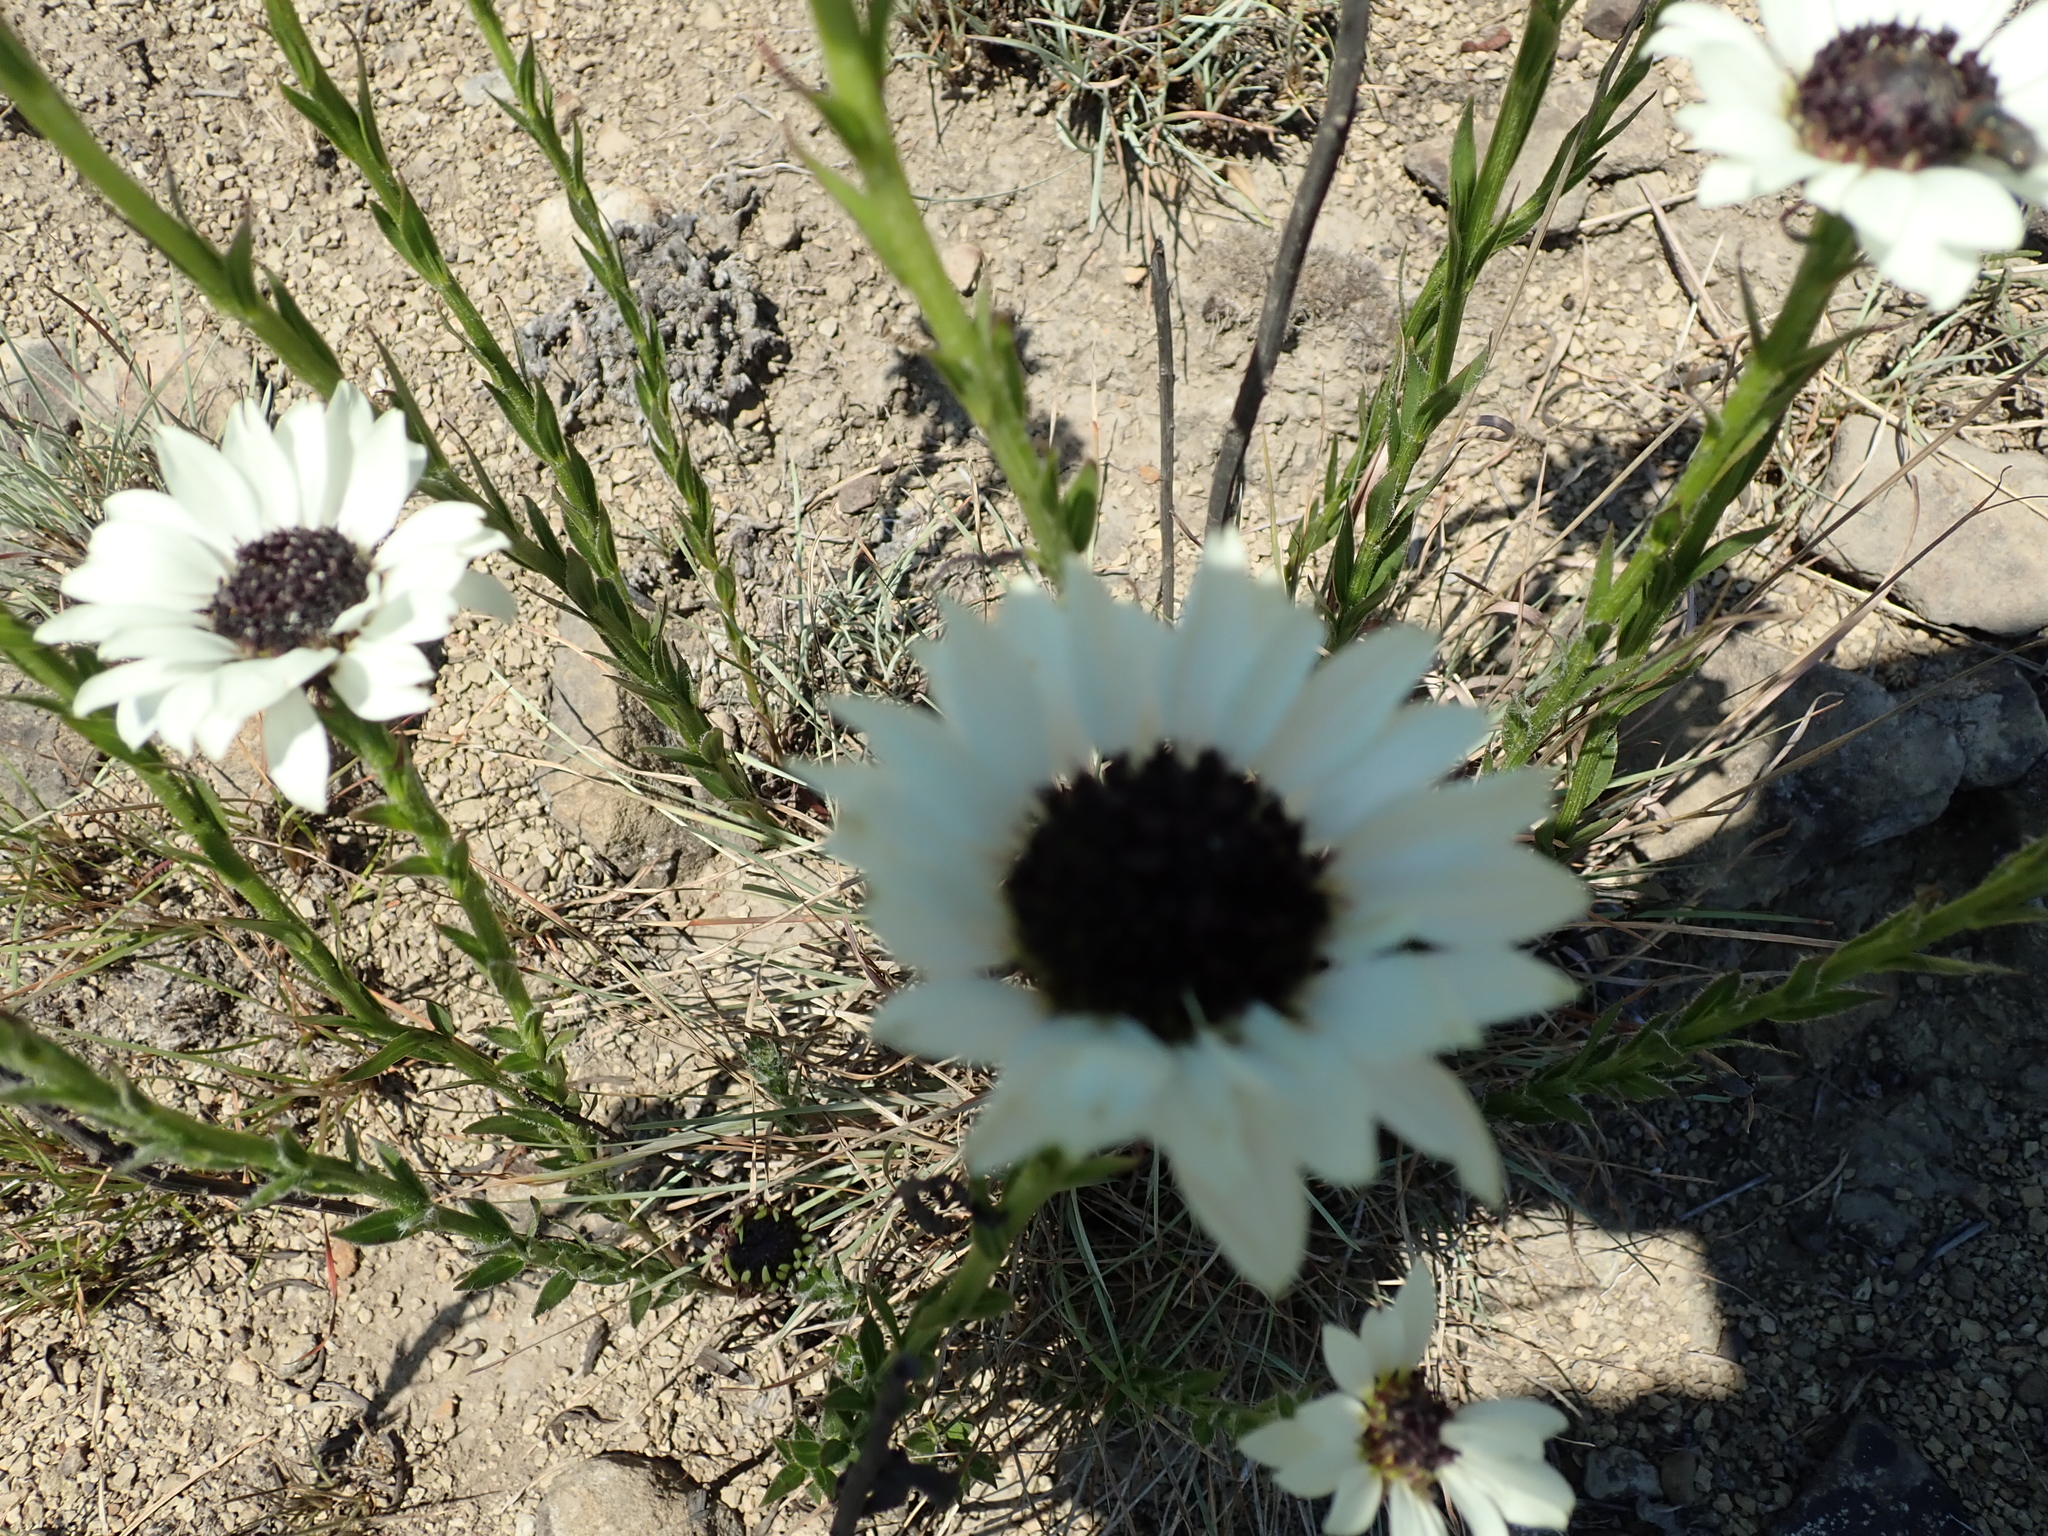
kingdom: Plantae
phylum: Tracheophyta
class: Magnoliopsida
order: Asterales
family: Asteraceae
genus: Callilepis
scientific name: Callilepis laureola
